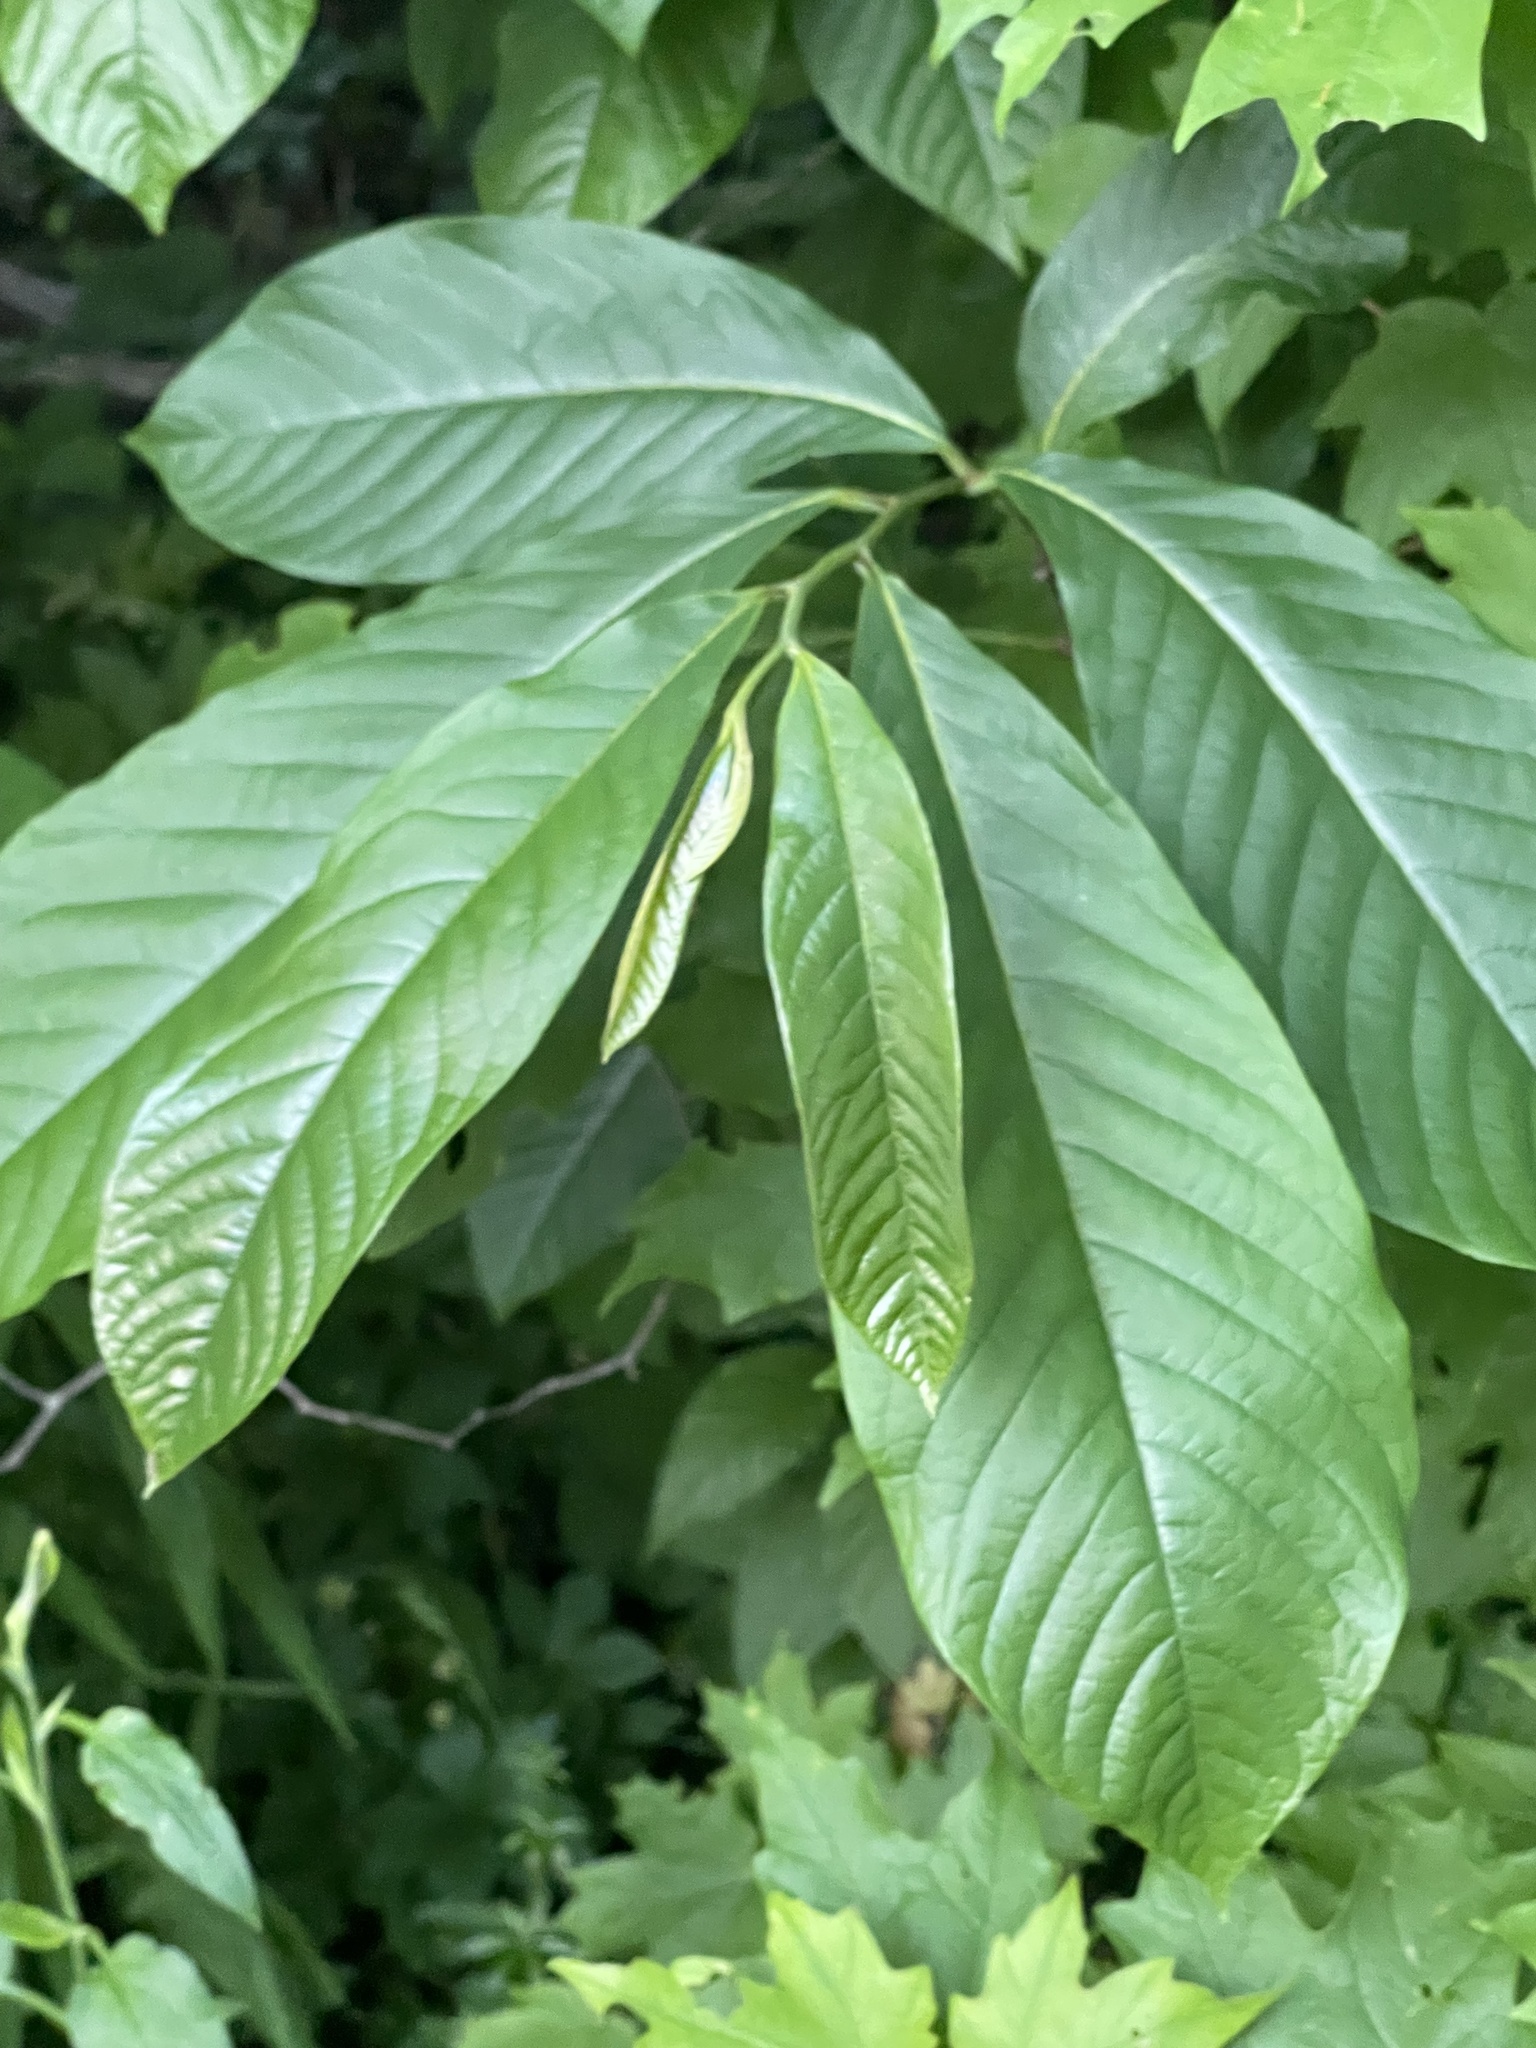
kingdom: Plantae
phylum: Tracheophyta
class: Magnoliopsida
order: Magnoliales
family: Annonaceae
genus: Asimina
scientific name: Asimina triloba
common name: Dog-banana
